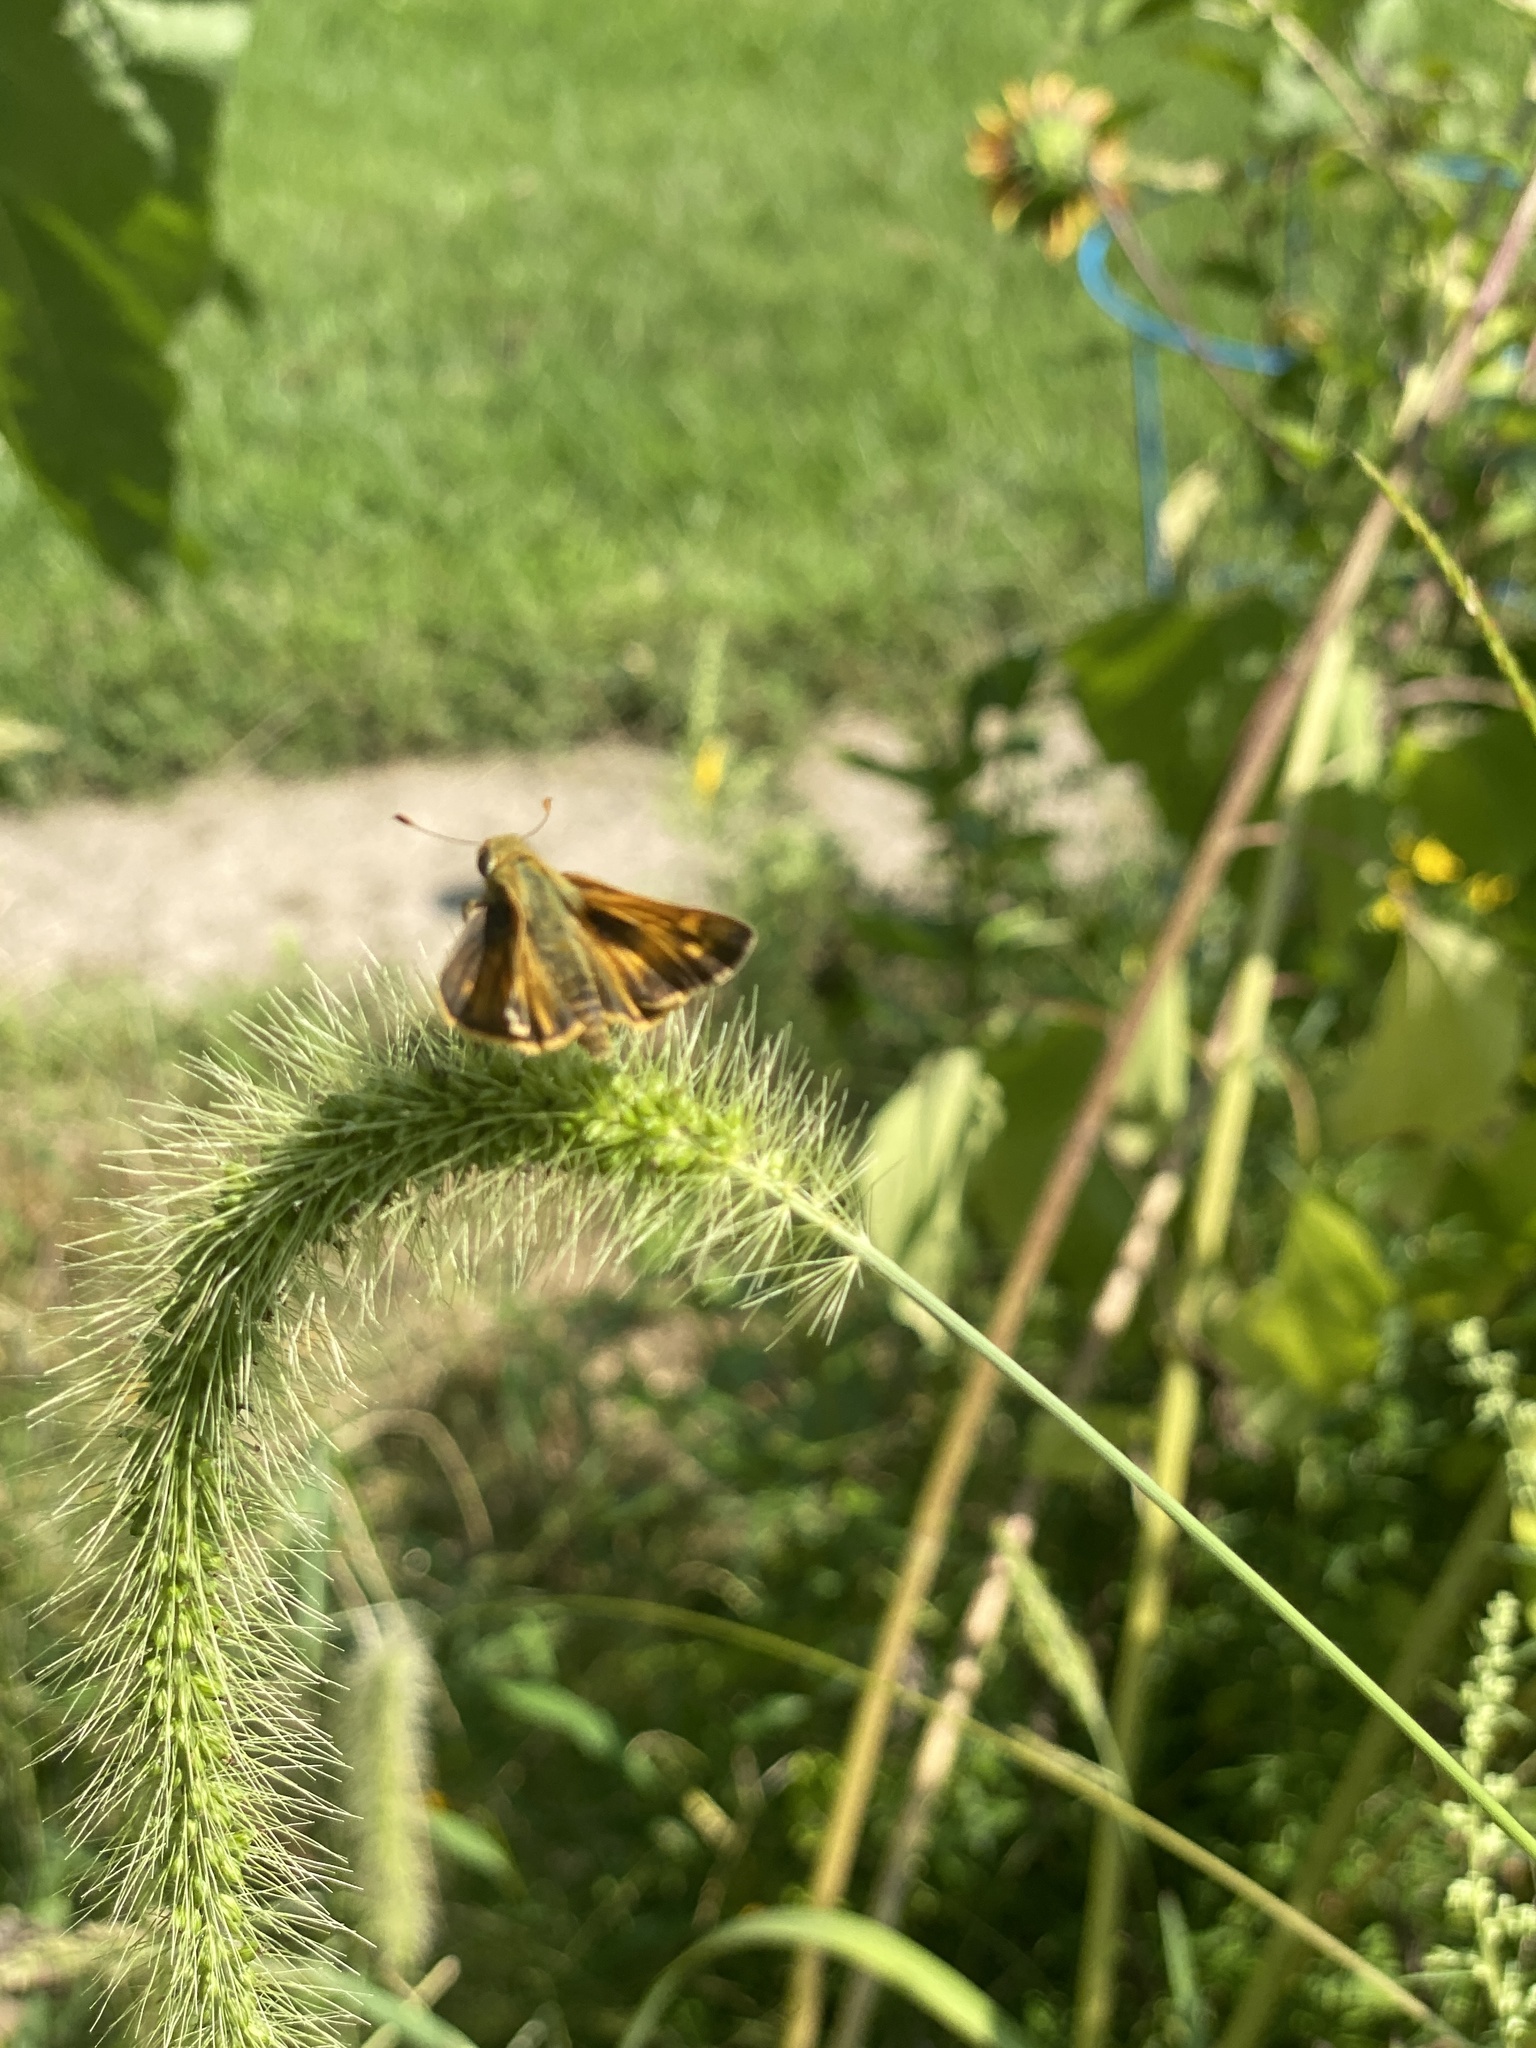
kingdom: Animalia
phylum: Arthropoda
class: Insecta
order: Lepidoptera
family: Hesperiidae
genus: Atalopedes
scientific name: Atalopedes
